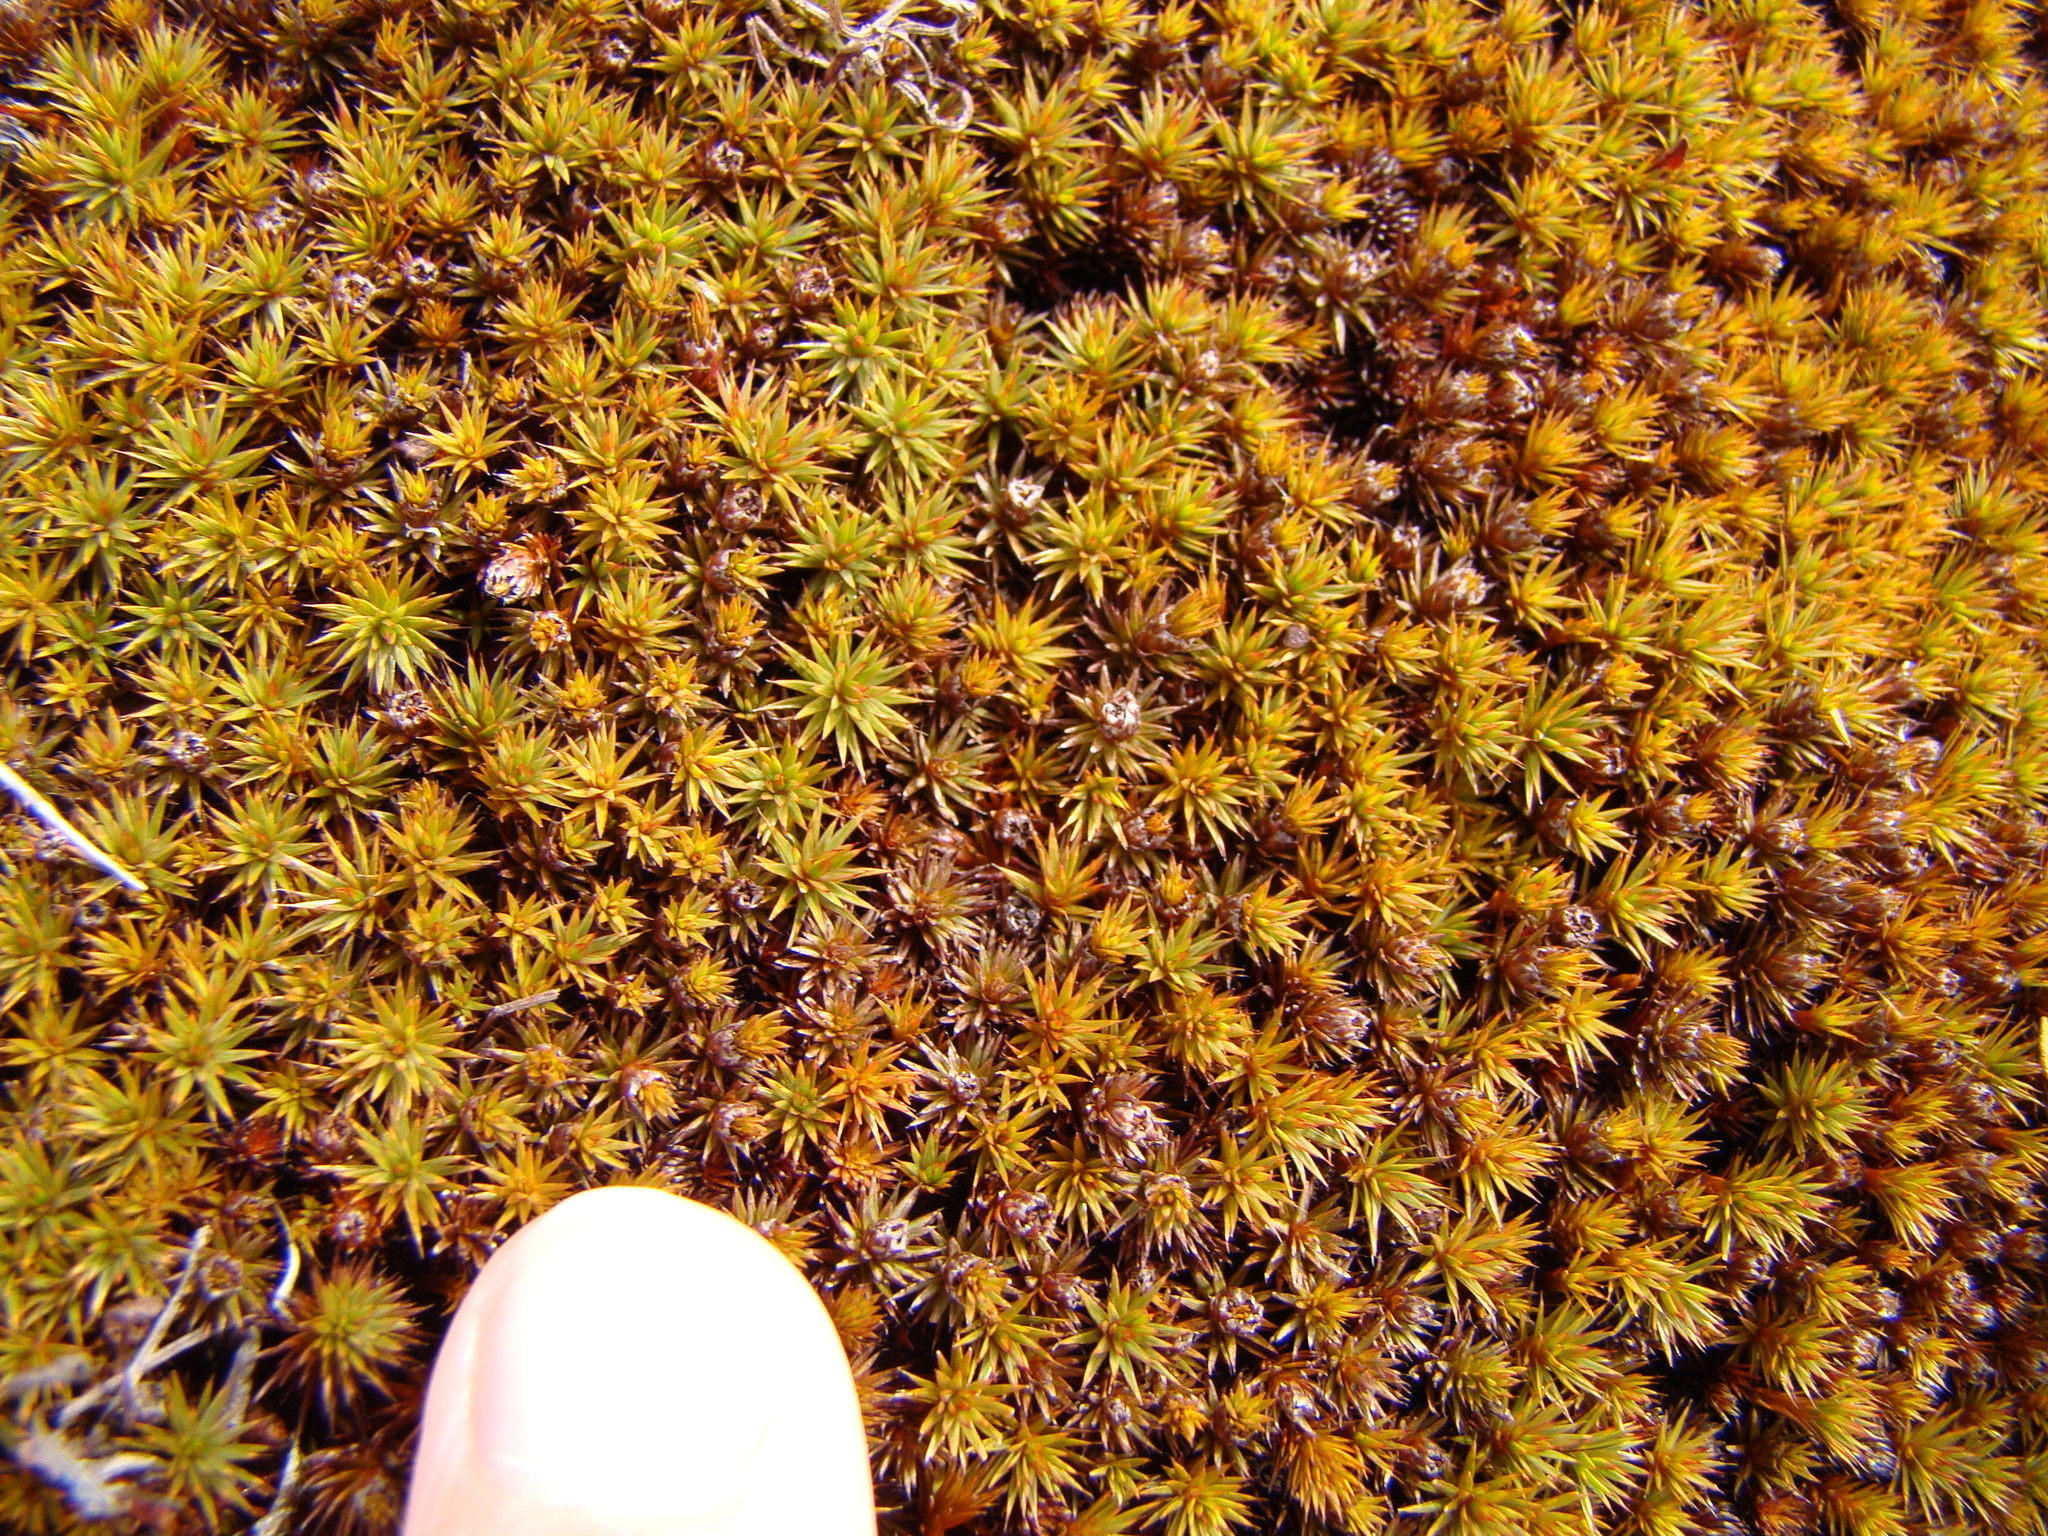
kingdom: Plantae
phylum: Bryophyta
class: Polytrichopsida
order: Polytrichales
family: Polytrichaceae
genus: Polytrichum
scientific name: Polytrichum juniperinum
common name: Juniper haircap moss
